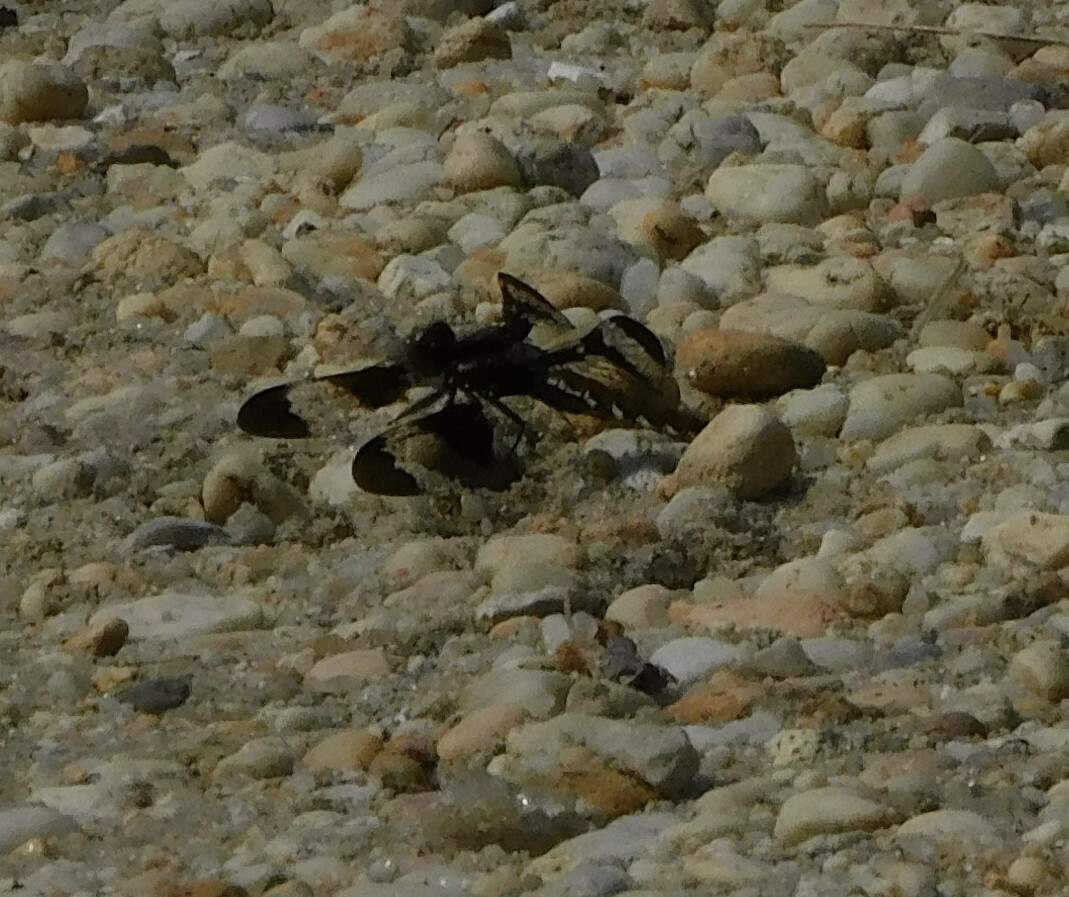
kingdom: Animalia
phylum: Arthropoda
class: Insecta
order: Odonata
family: Libellulidae
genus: Plathemis
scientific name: Plathemis lydia
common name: Common whitetail
